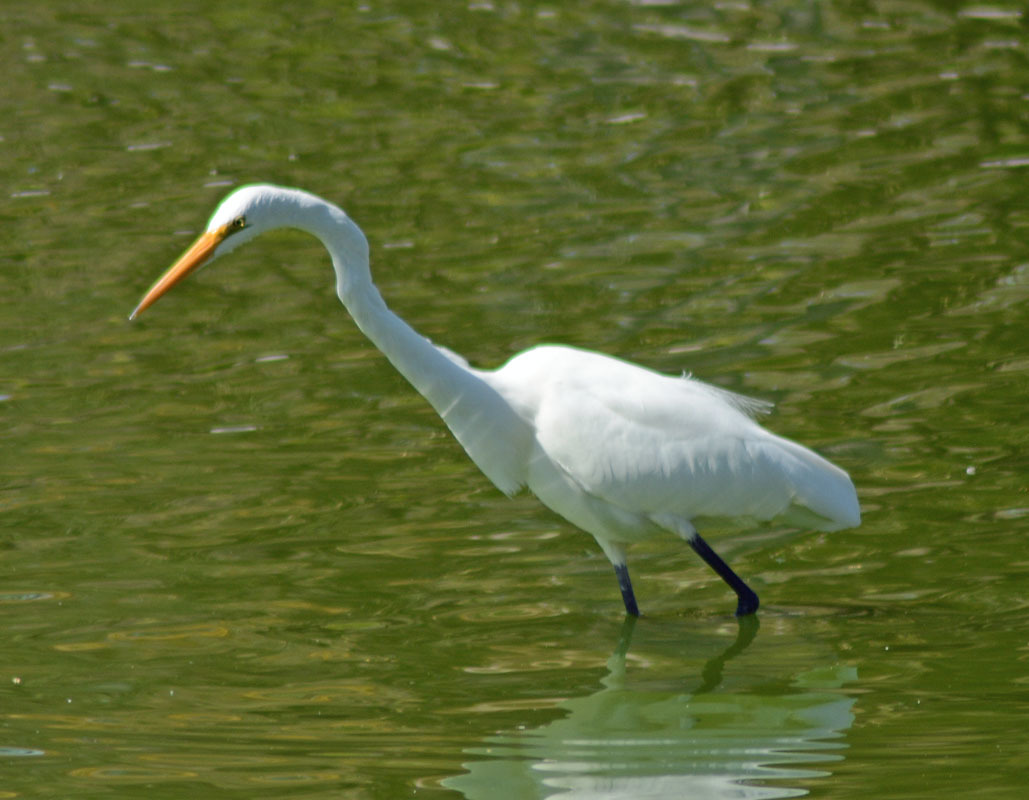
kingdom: Animalia
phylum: Chordata
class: Aves
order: Pelecaniformes
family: Ardeidae
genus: Ardea
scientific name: Ardea alba
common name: Great egret
